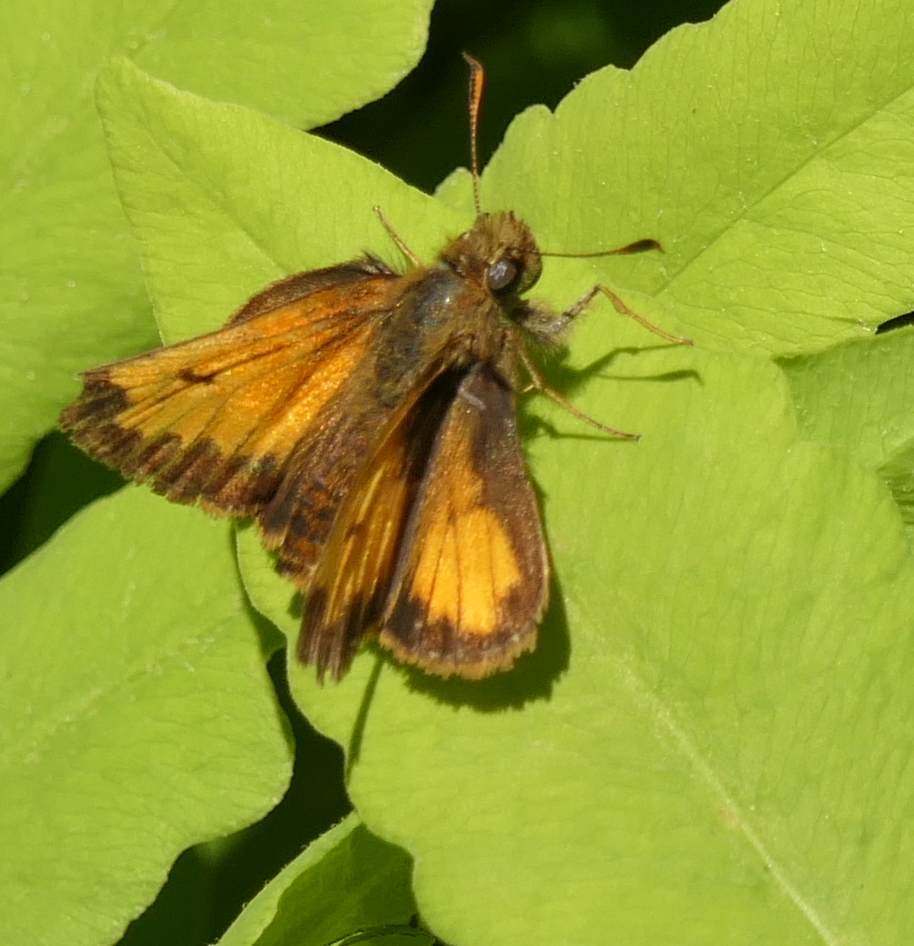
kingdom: Animalia
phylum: Arthropoda
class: Insecta
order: Lepidoptera
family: Hesperiidae
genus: Lon
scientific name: Lon hobomok
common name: Hobomok skipper
